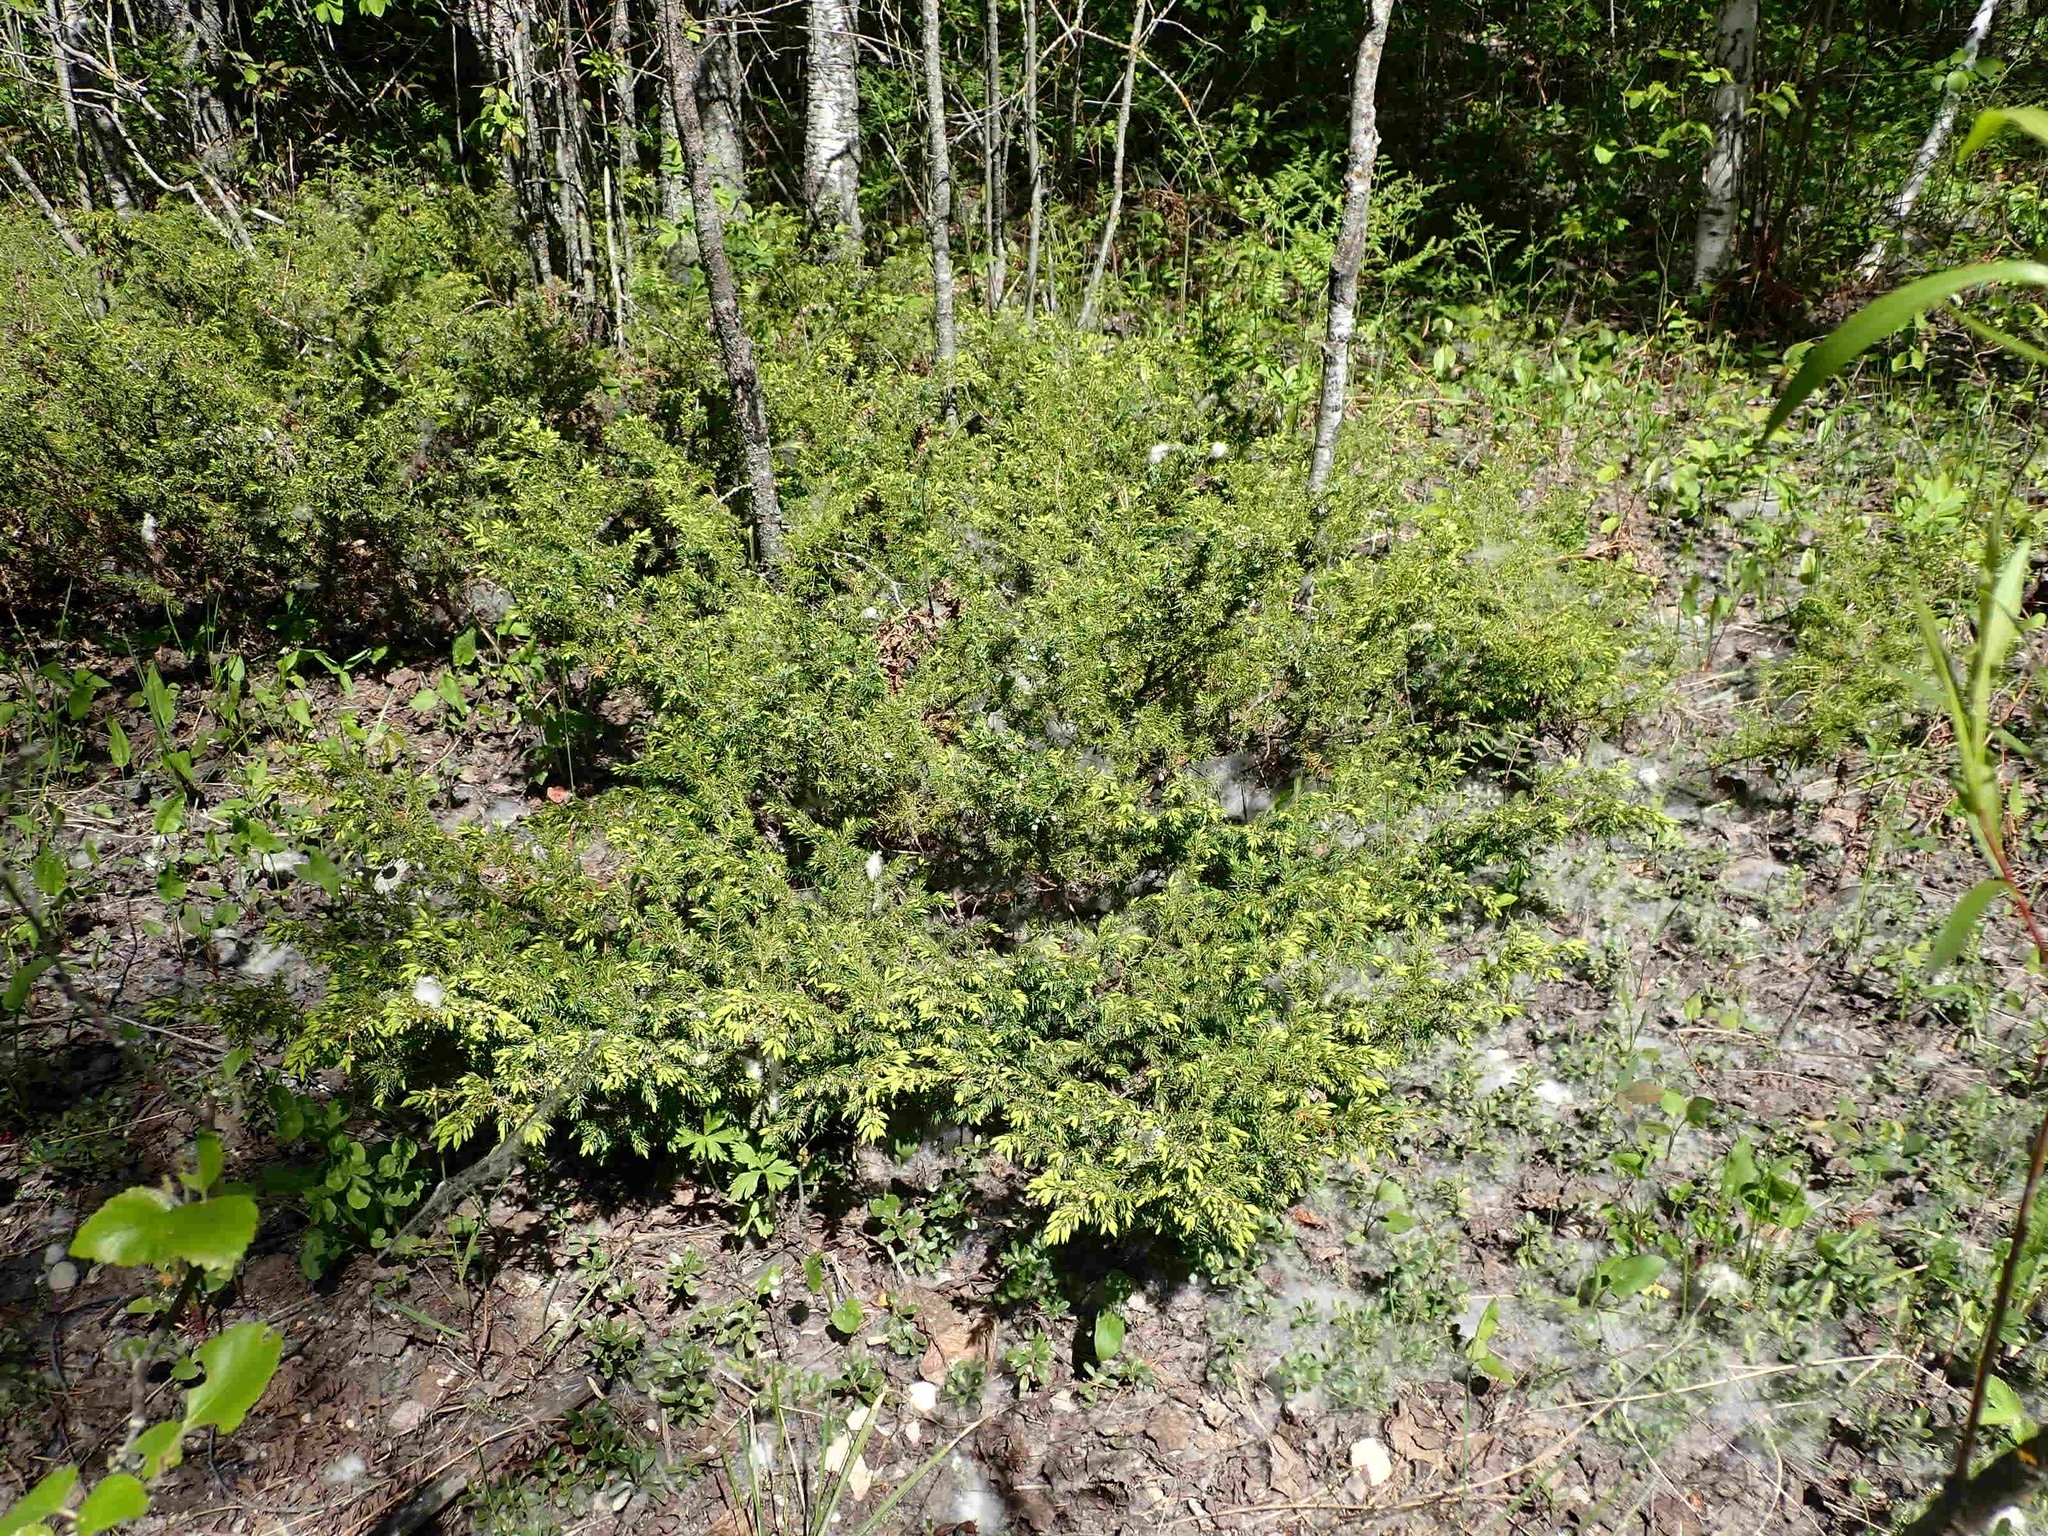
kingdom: Plantae
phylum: Tracheophyta
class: Pinopsida
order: Pinales
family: Cupressaceae
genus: Juniperus
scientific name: Juniperus communis
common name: Common juniper
